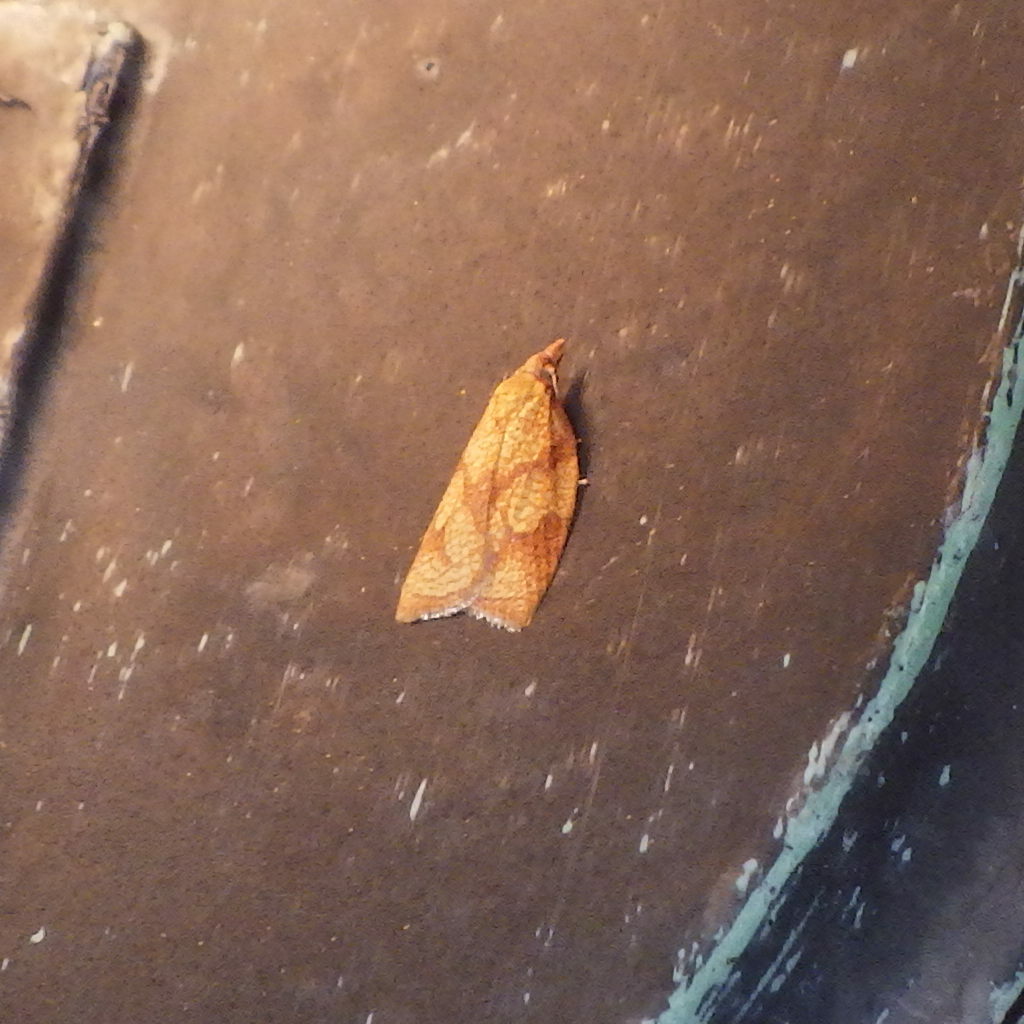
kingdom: Animalia
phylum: Arthropoda
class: Insecta
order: Lepidoptera
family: Tortricidae
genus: Cenopis
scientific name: Cenopis reticulatana
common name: Reticulated fruitworm moth
